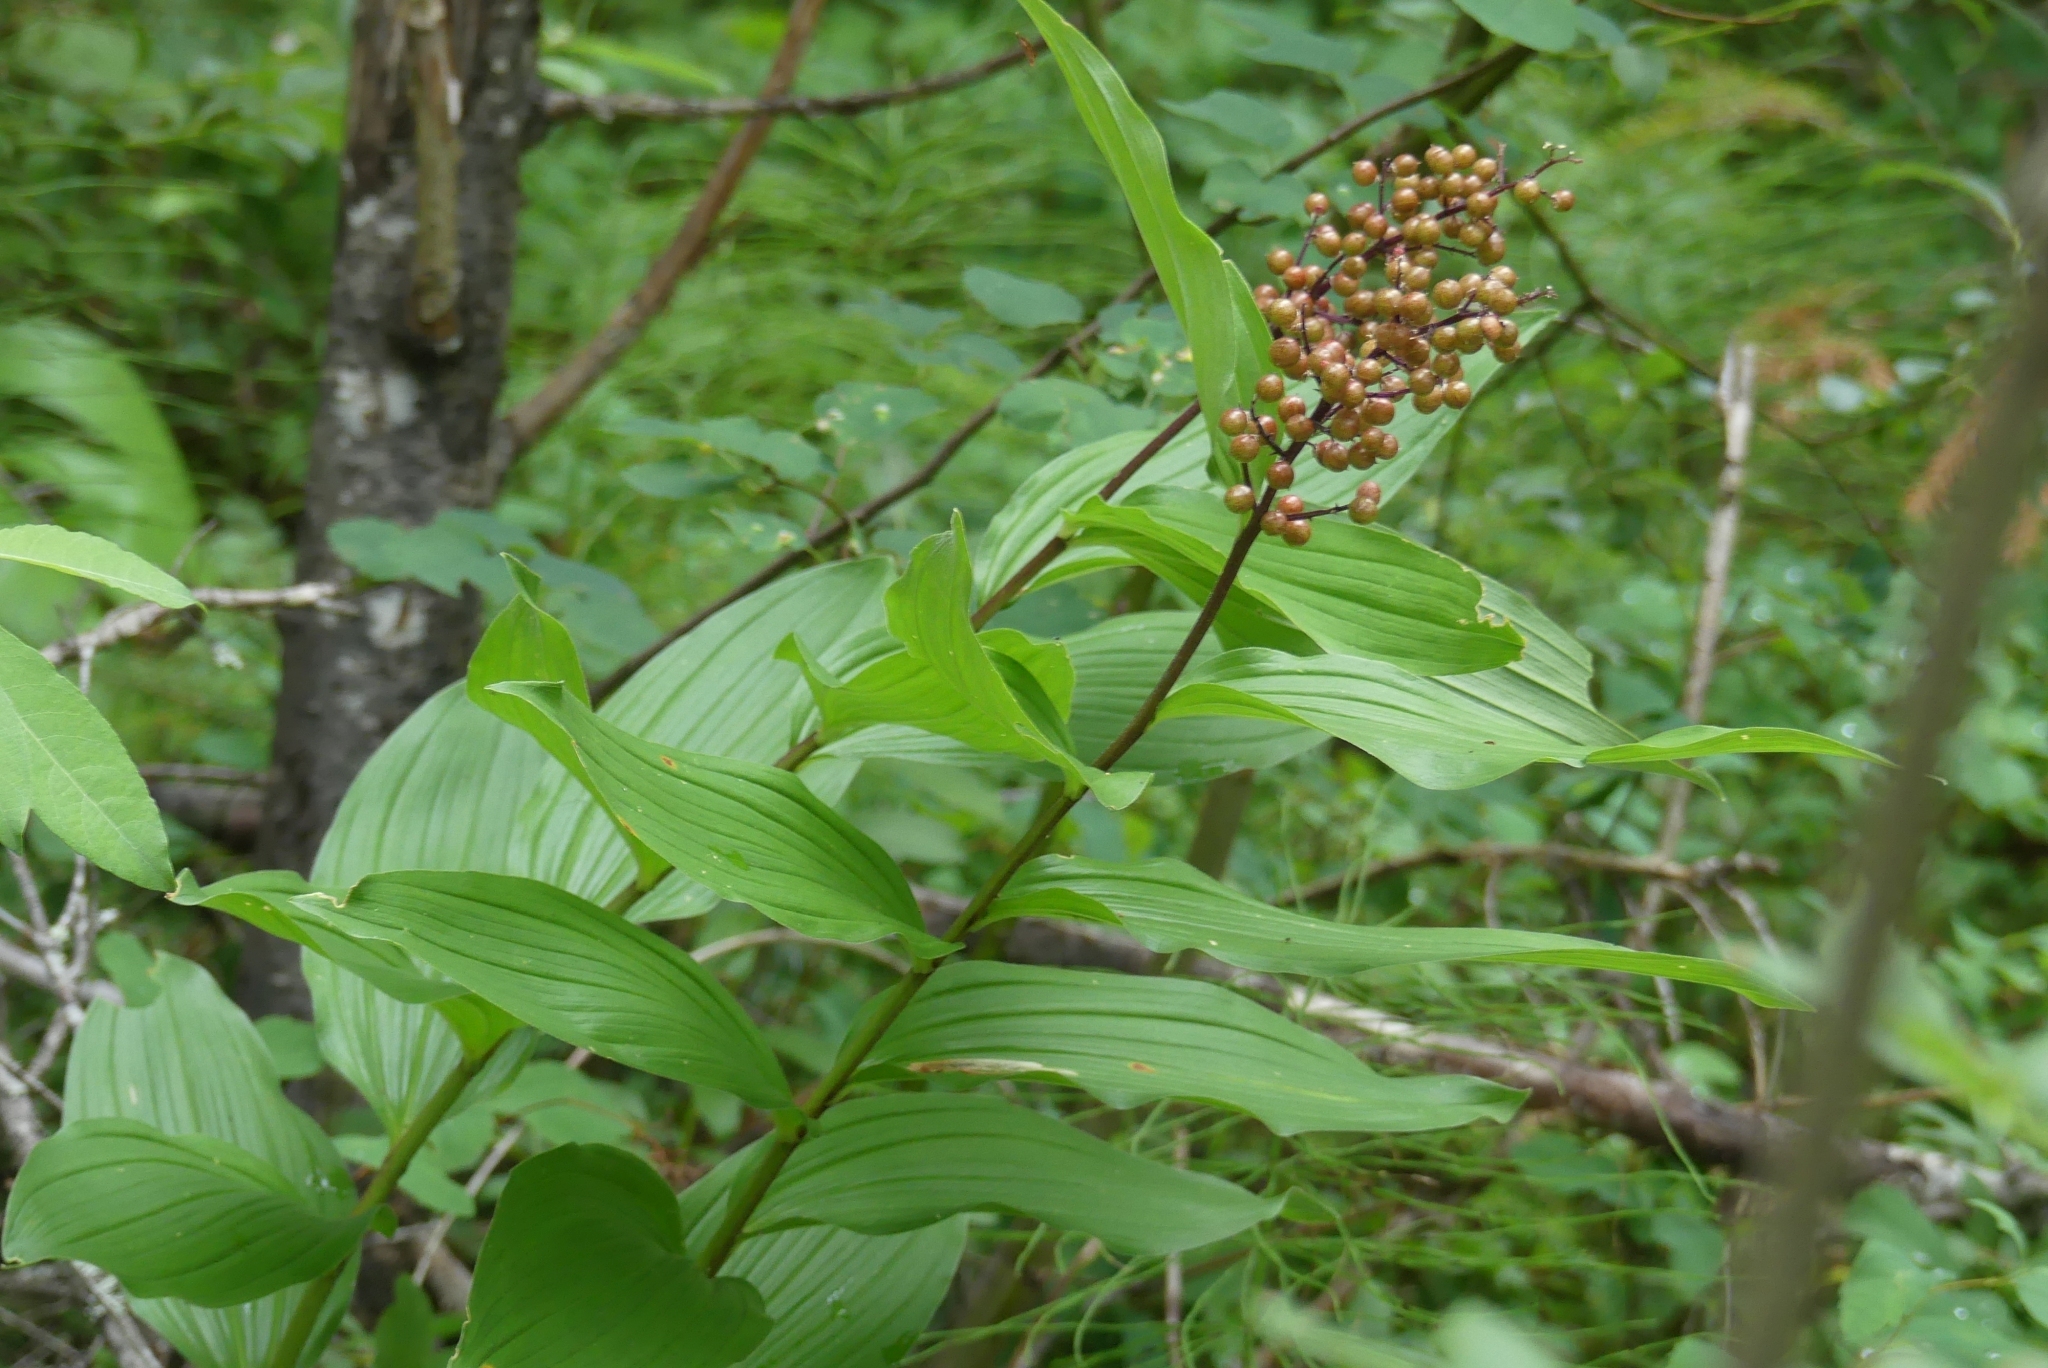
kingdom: Plantae
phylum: Tracheophyta
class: Liliopsida
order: Asparagales
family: Asparagaceae
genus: Maianthemum
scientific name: Maianthemum racemosum
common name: False spikenard
